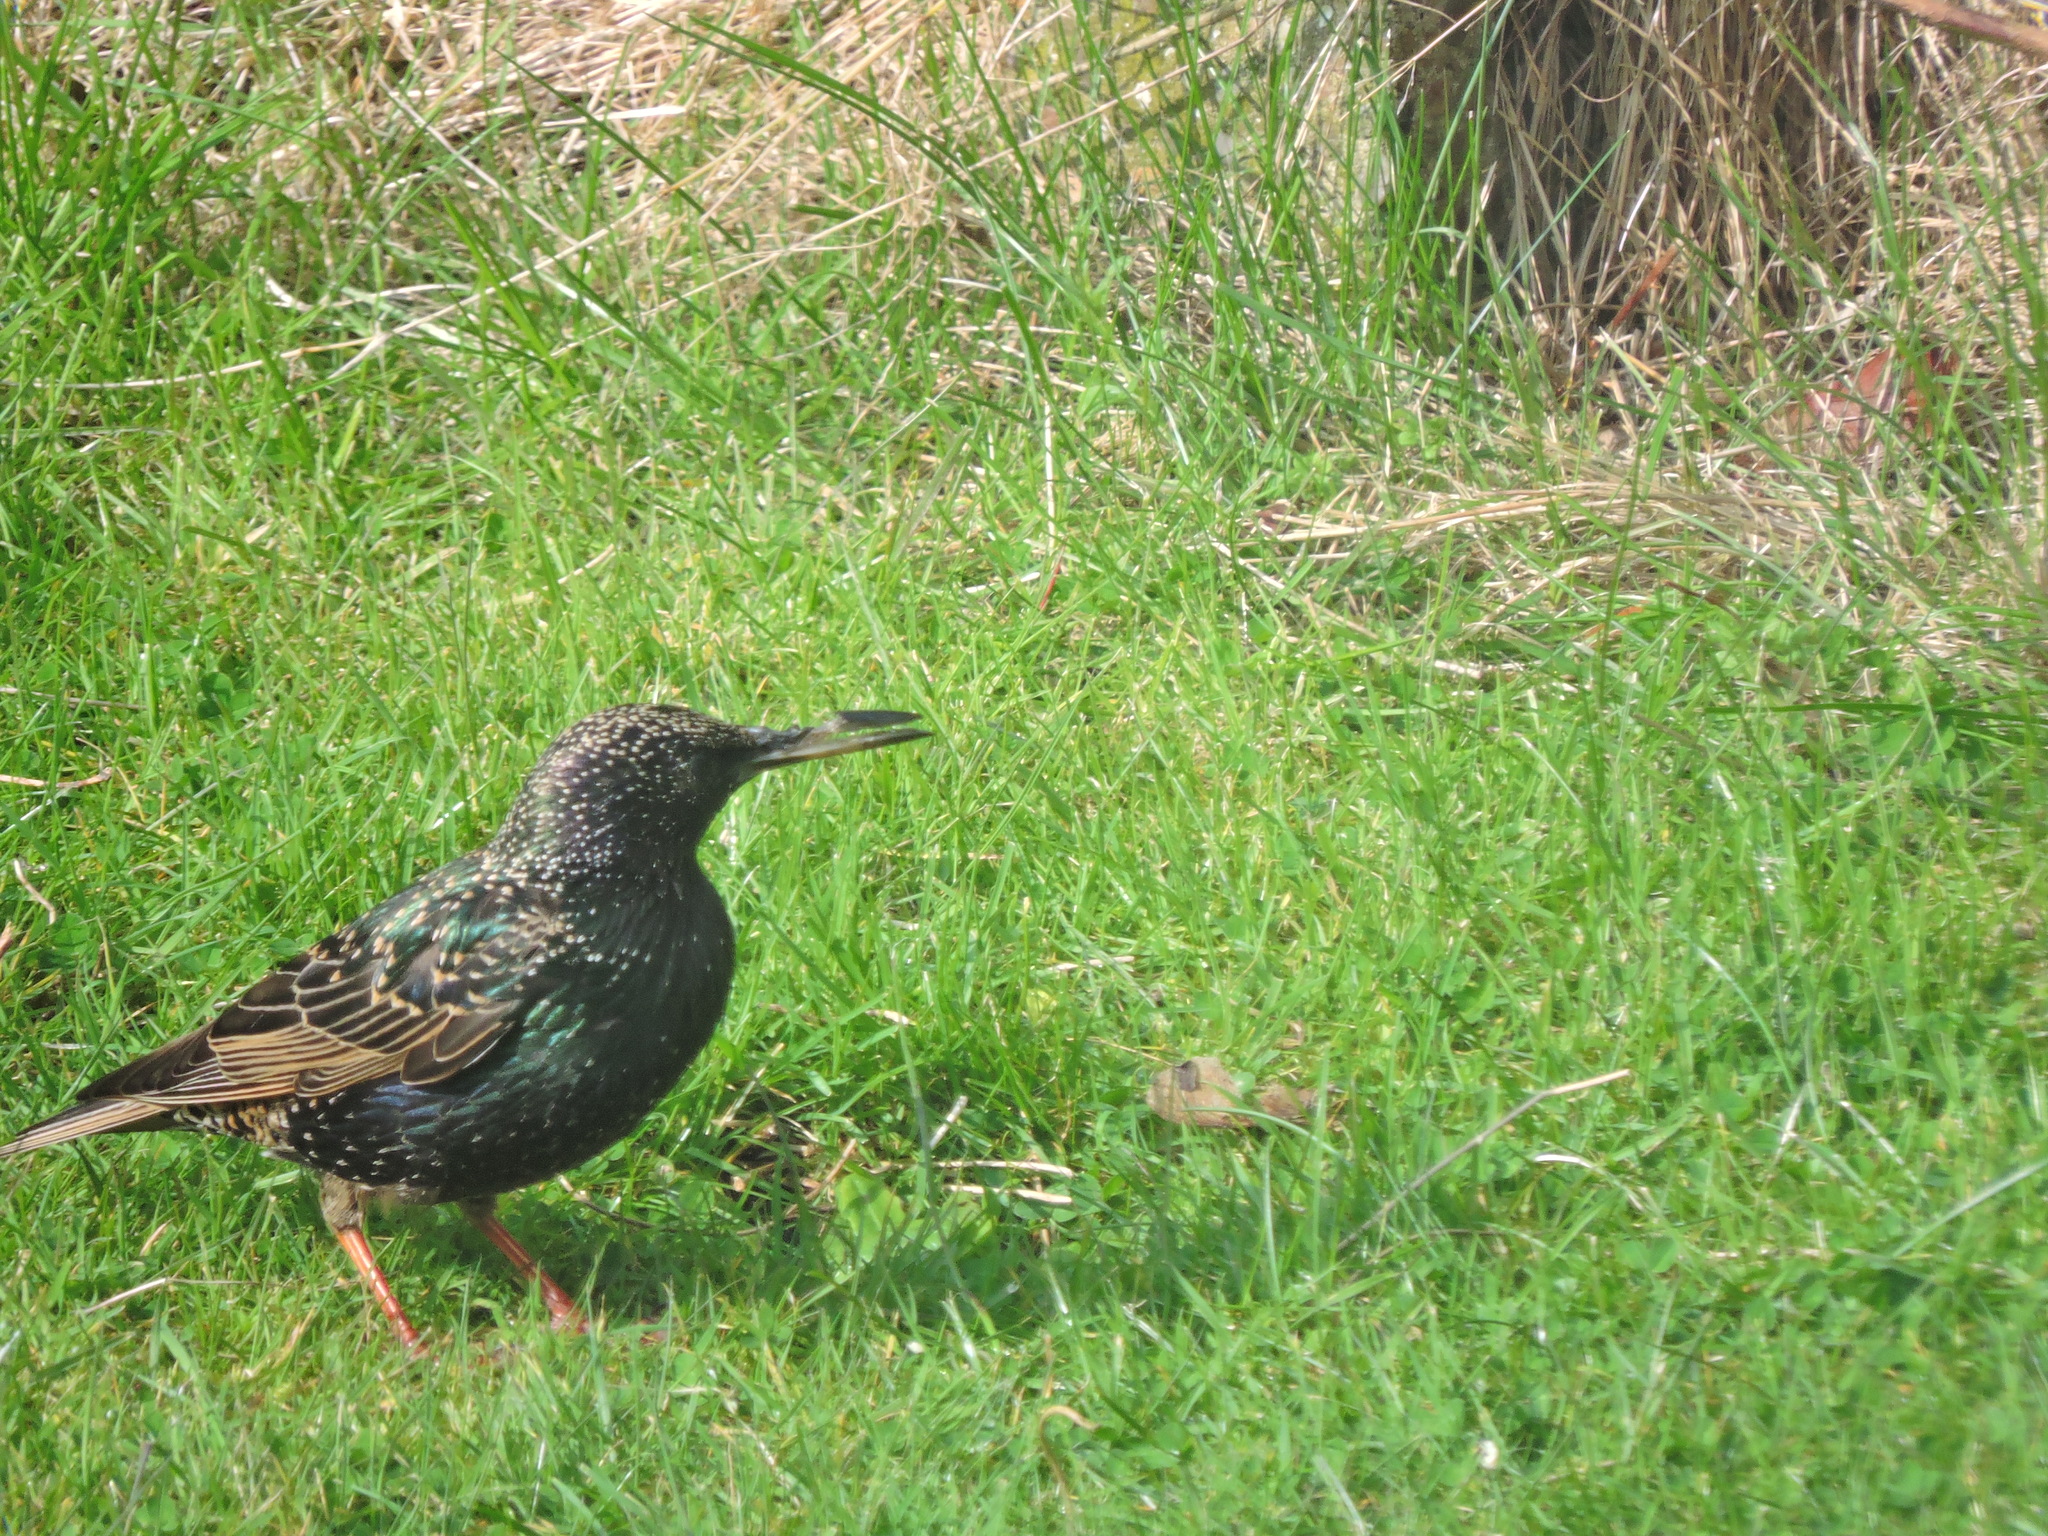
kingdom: Animalia
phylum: Chordata
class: Aves
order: Passeriformes
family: Sturnidae
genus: Sturnus
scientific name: Sturnus vulgaris
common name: Common starling
